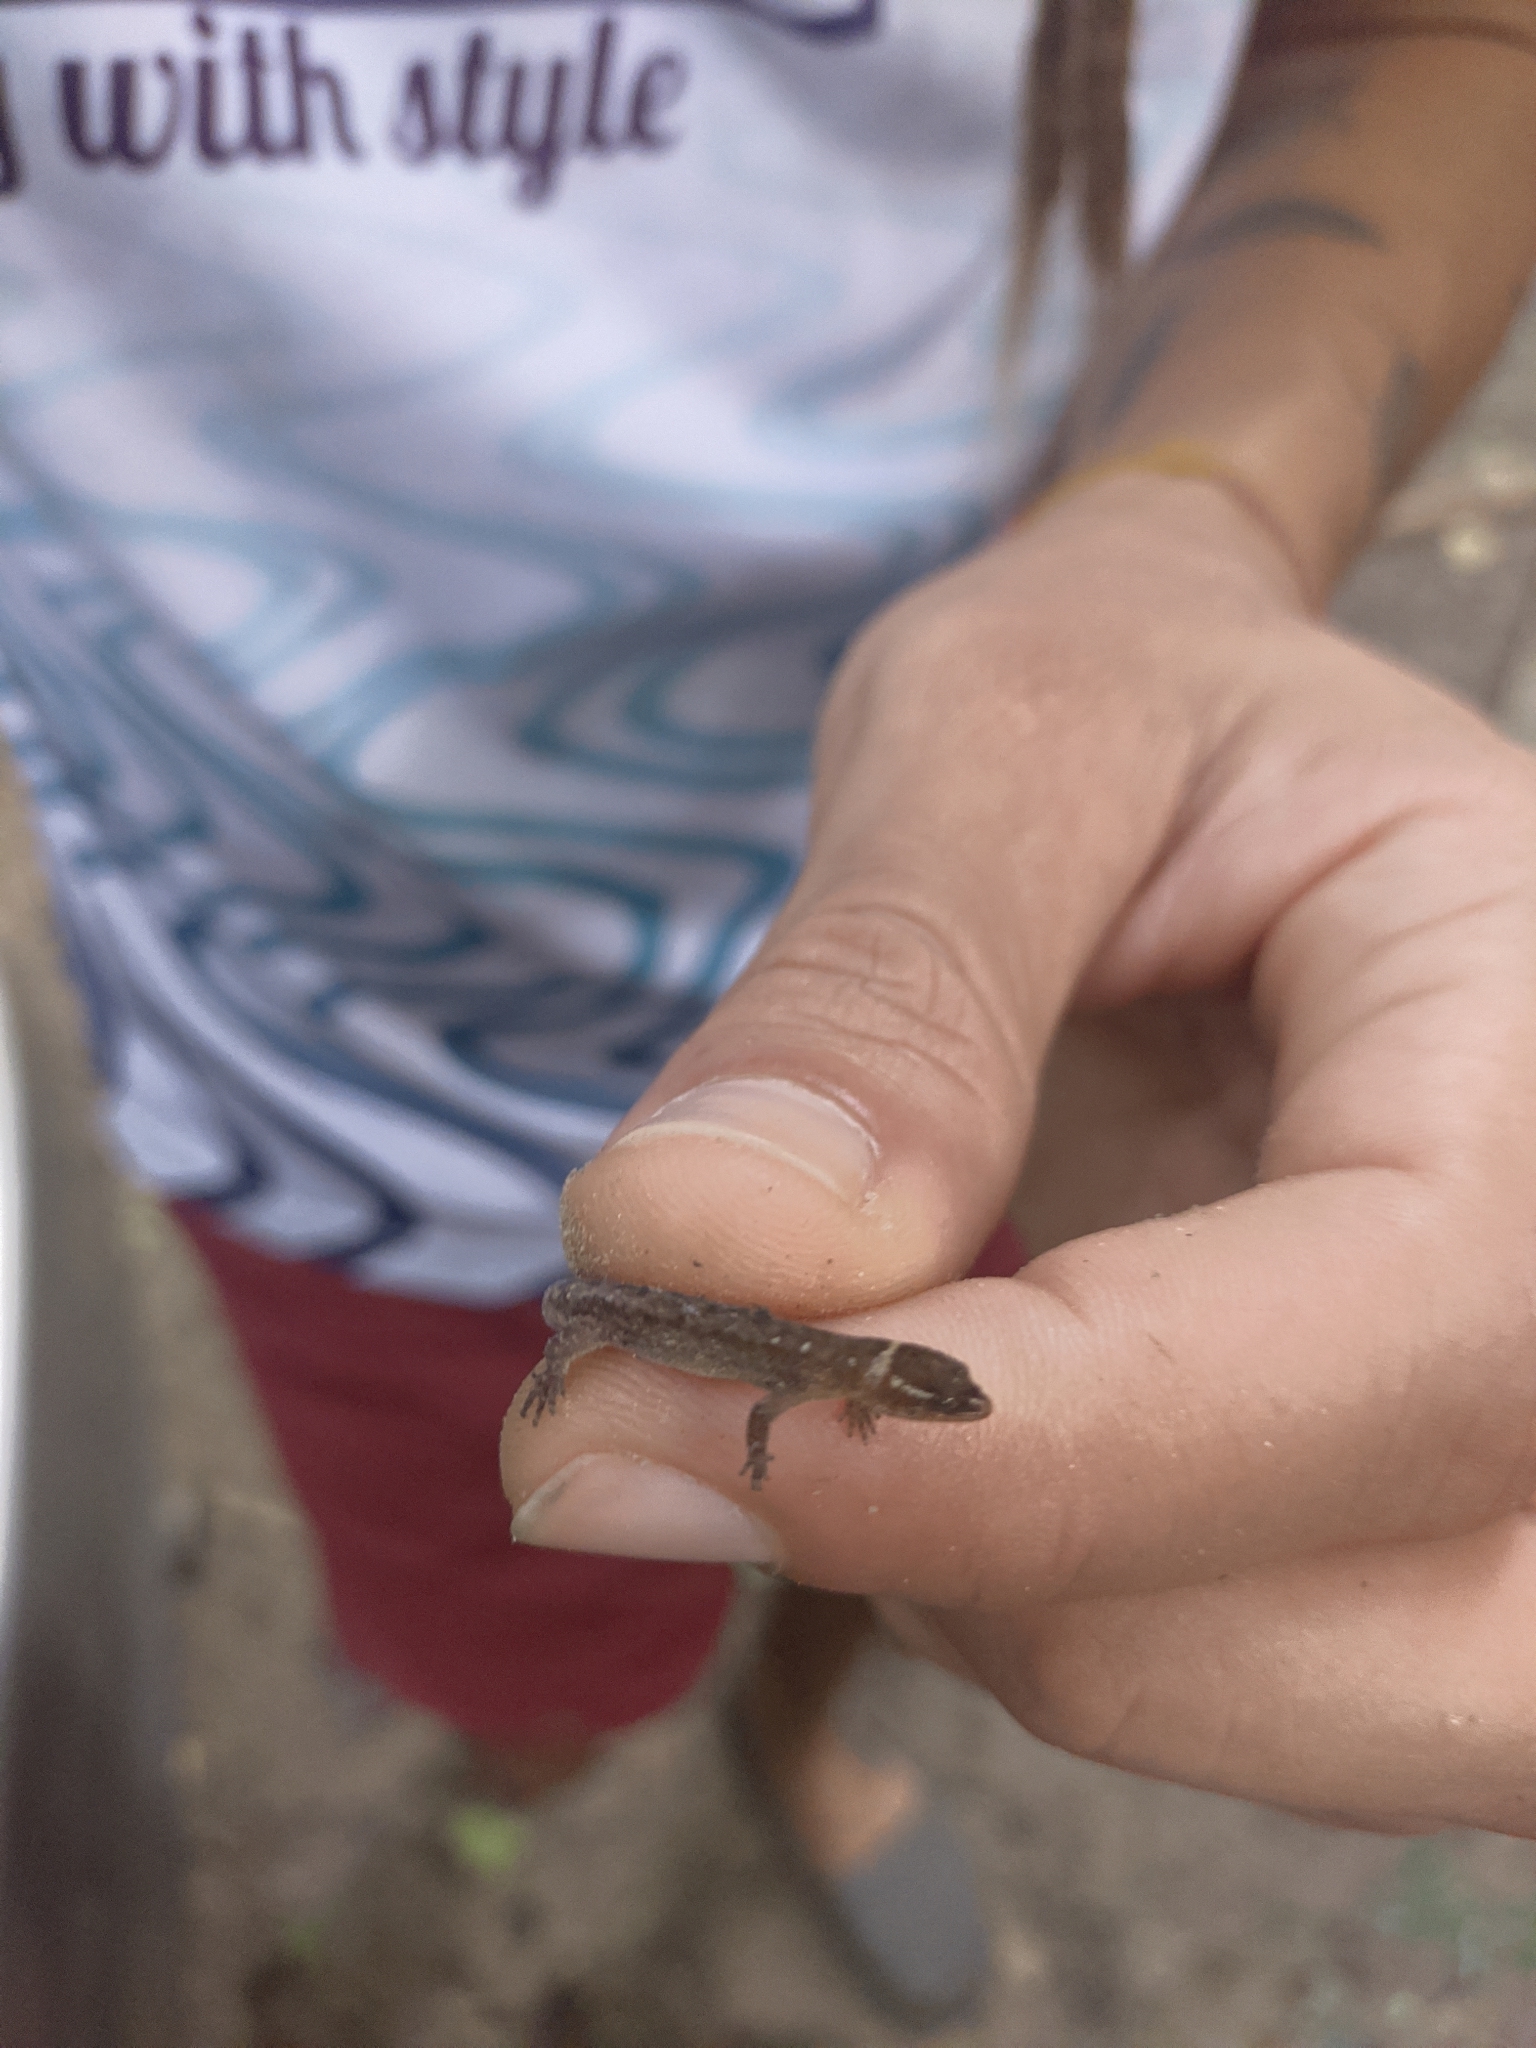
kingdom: Animalia
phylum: Chordata
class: Squamata
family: Sphaerodactylidae
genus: Lepidoblepharis
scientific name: Lepidoblepharis miyatai
